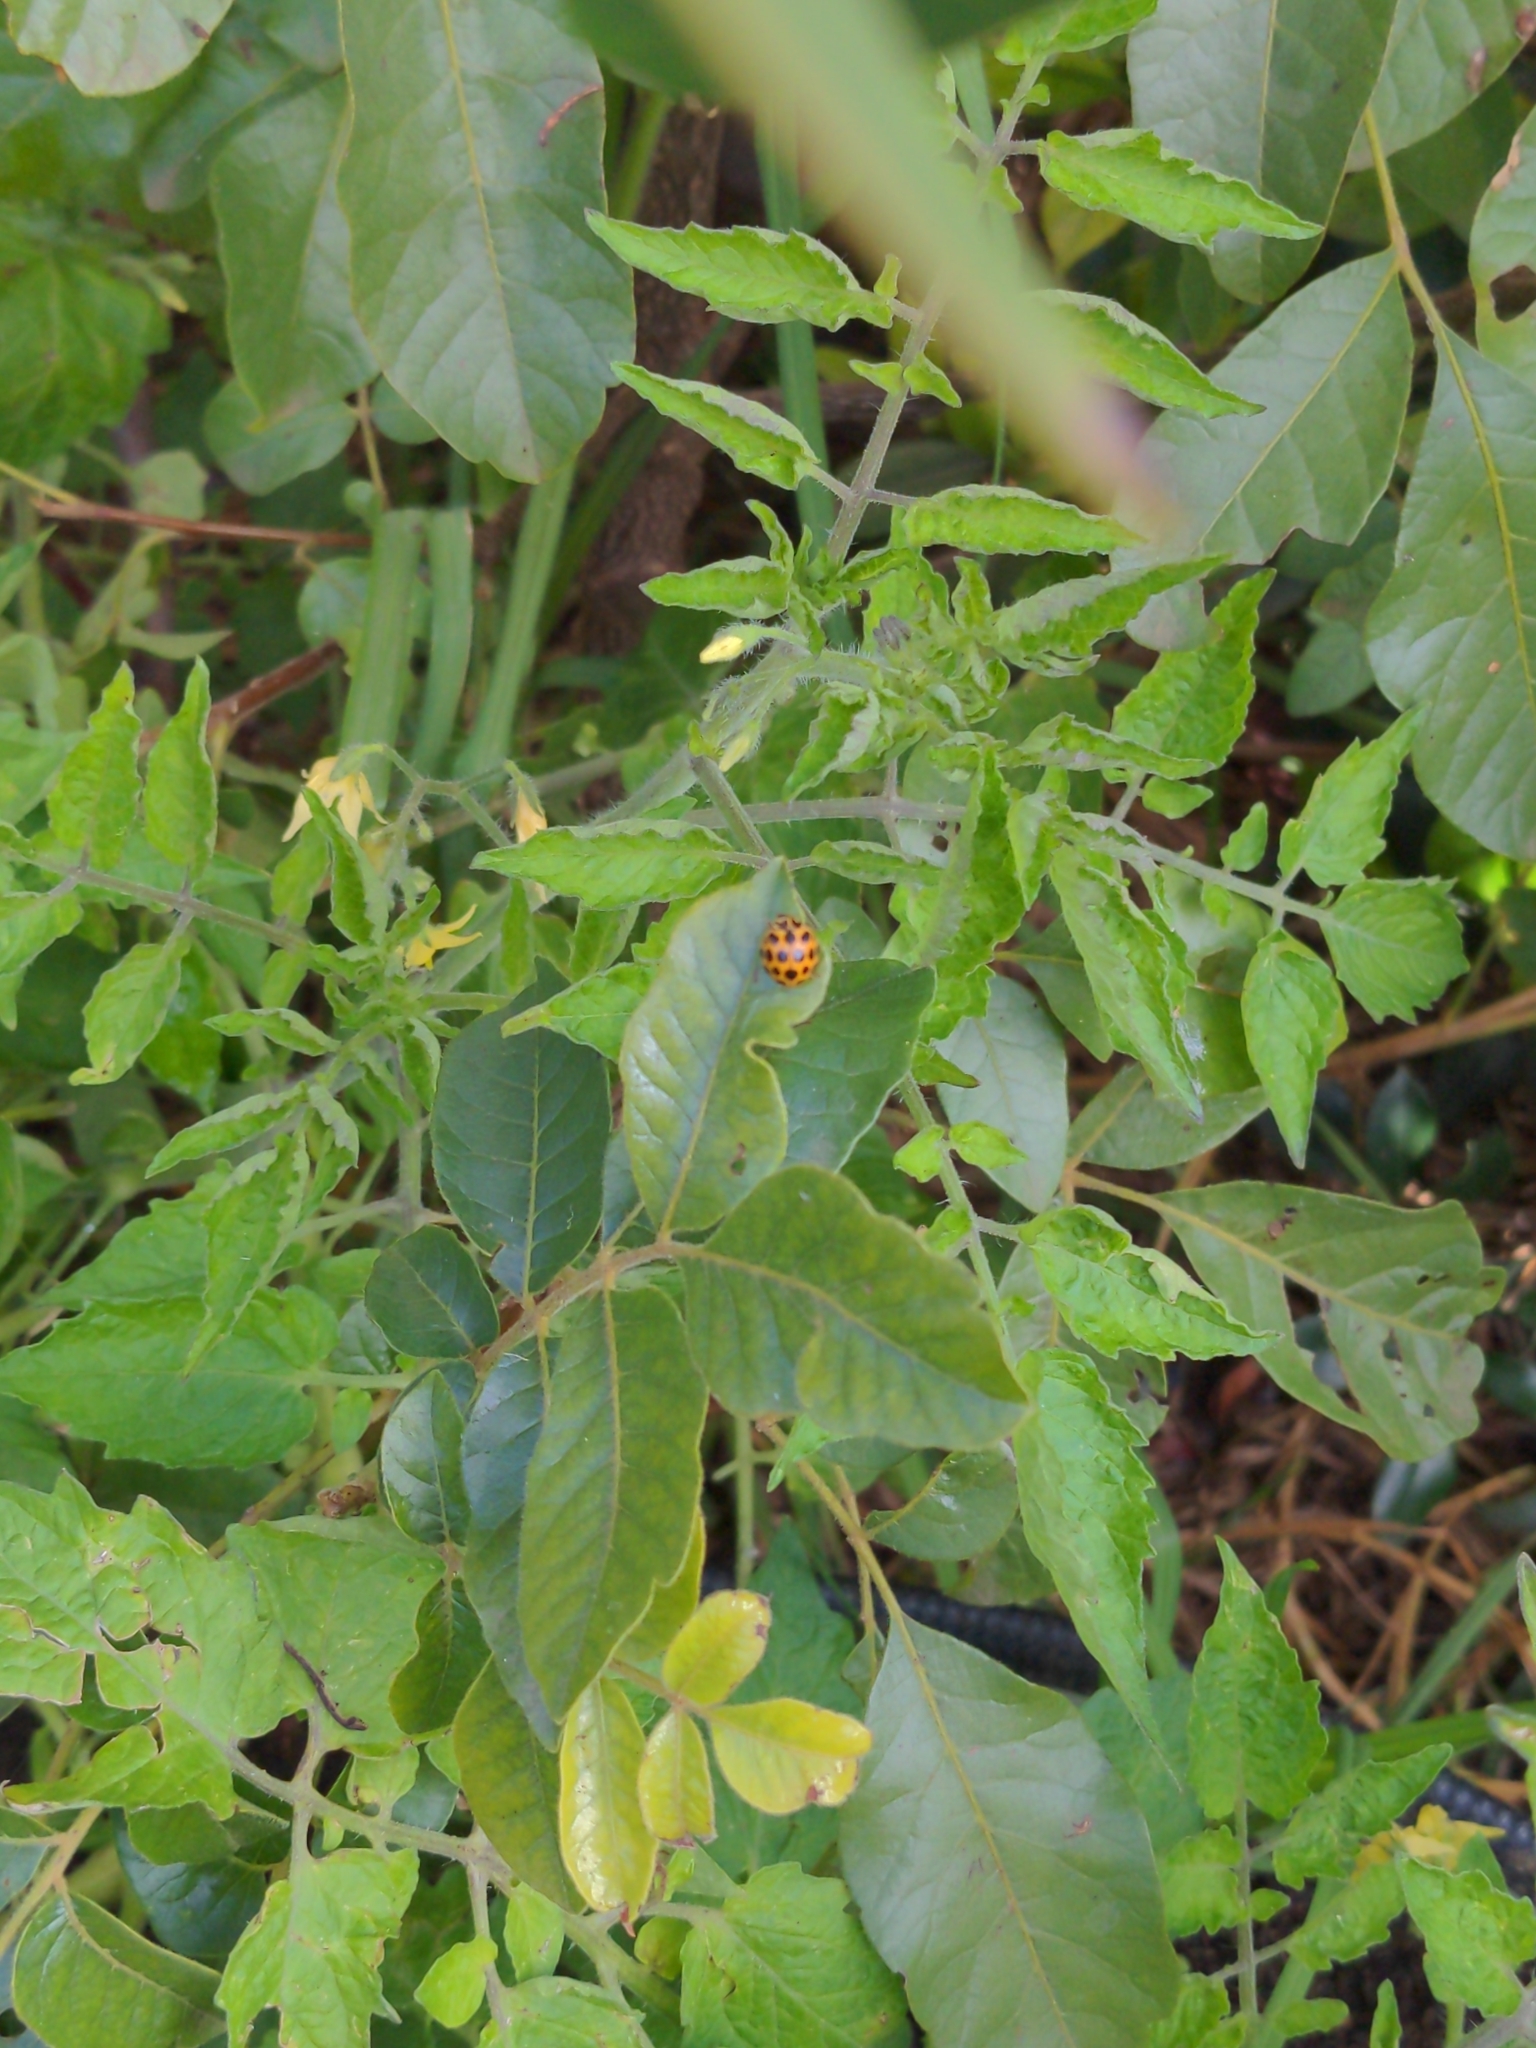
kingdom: Animalia
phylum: Arthropoda
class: Insecta
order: Coleoptera
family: Coccinellidae
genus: Harmonia
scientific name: Harmonia conformis
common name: Common spotted ladybird beetle
